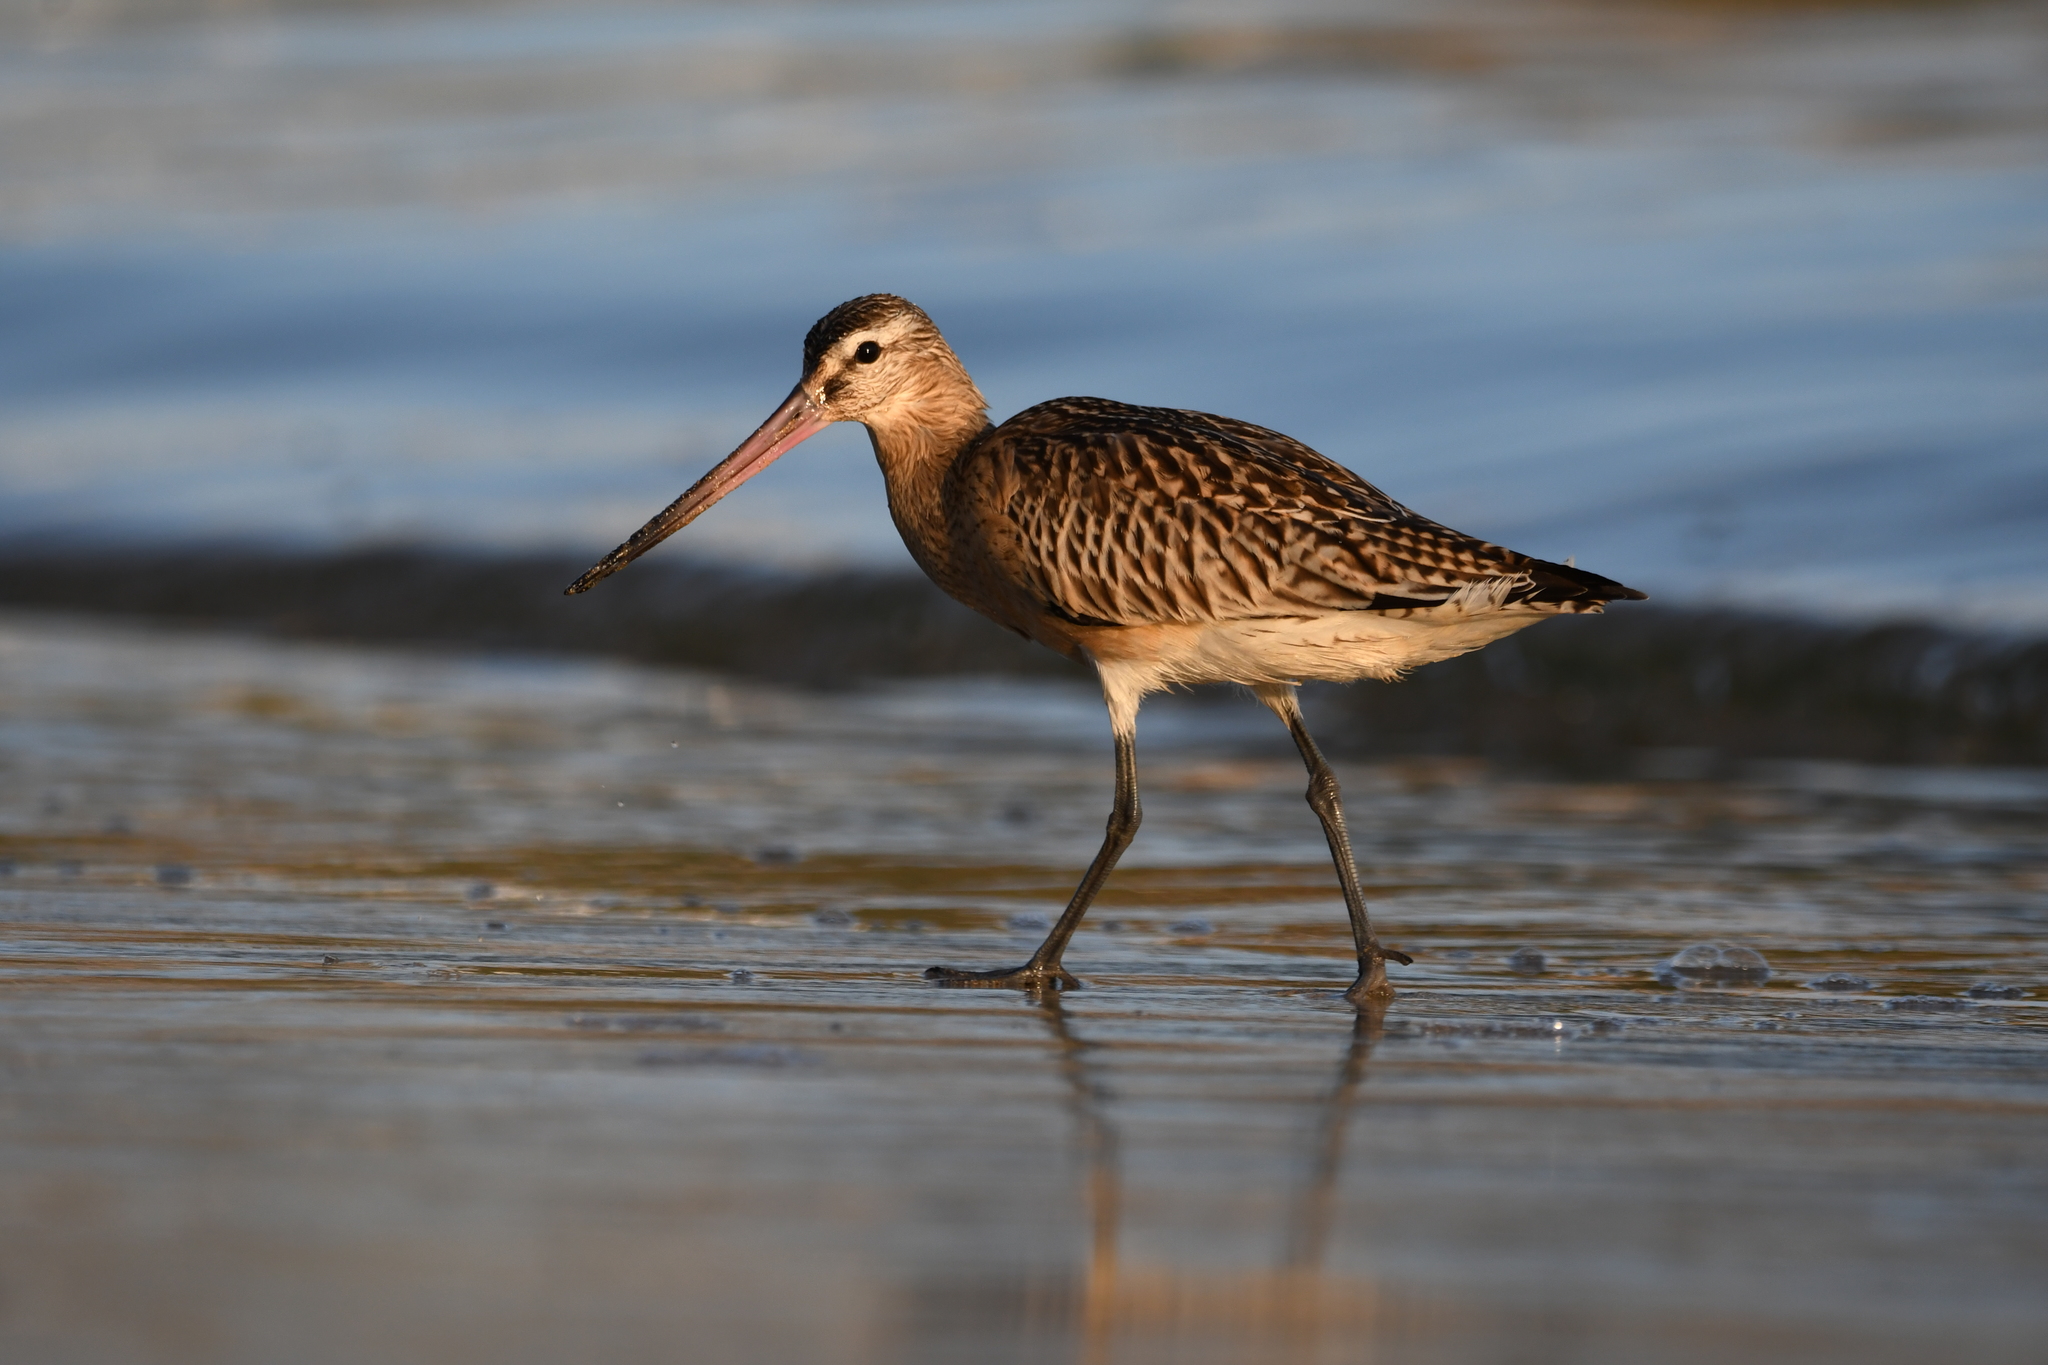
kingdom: Animalia
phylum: Chordata
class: Aves
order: Charadriiformes
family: Scolopacidae
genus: Limosa
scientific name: Limosa lapponica
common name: Bar-tailed godwit
